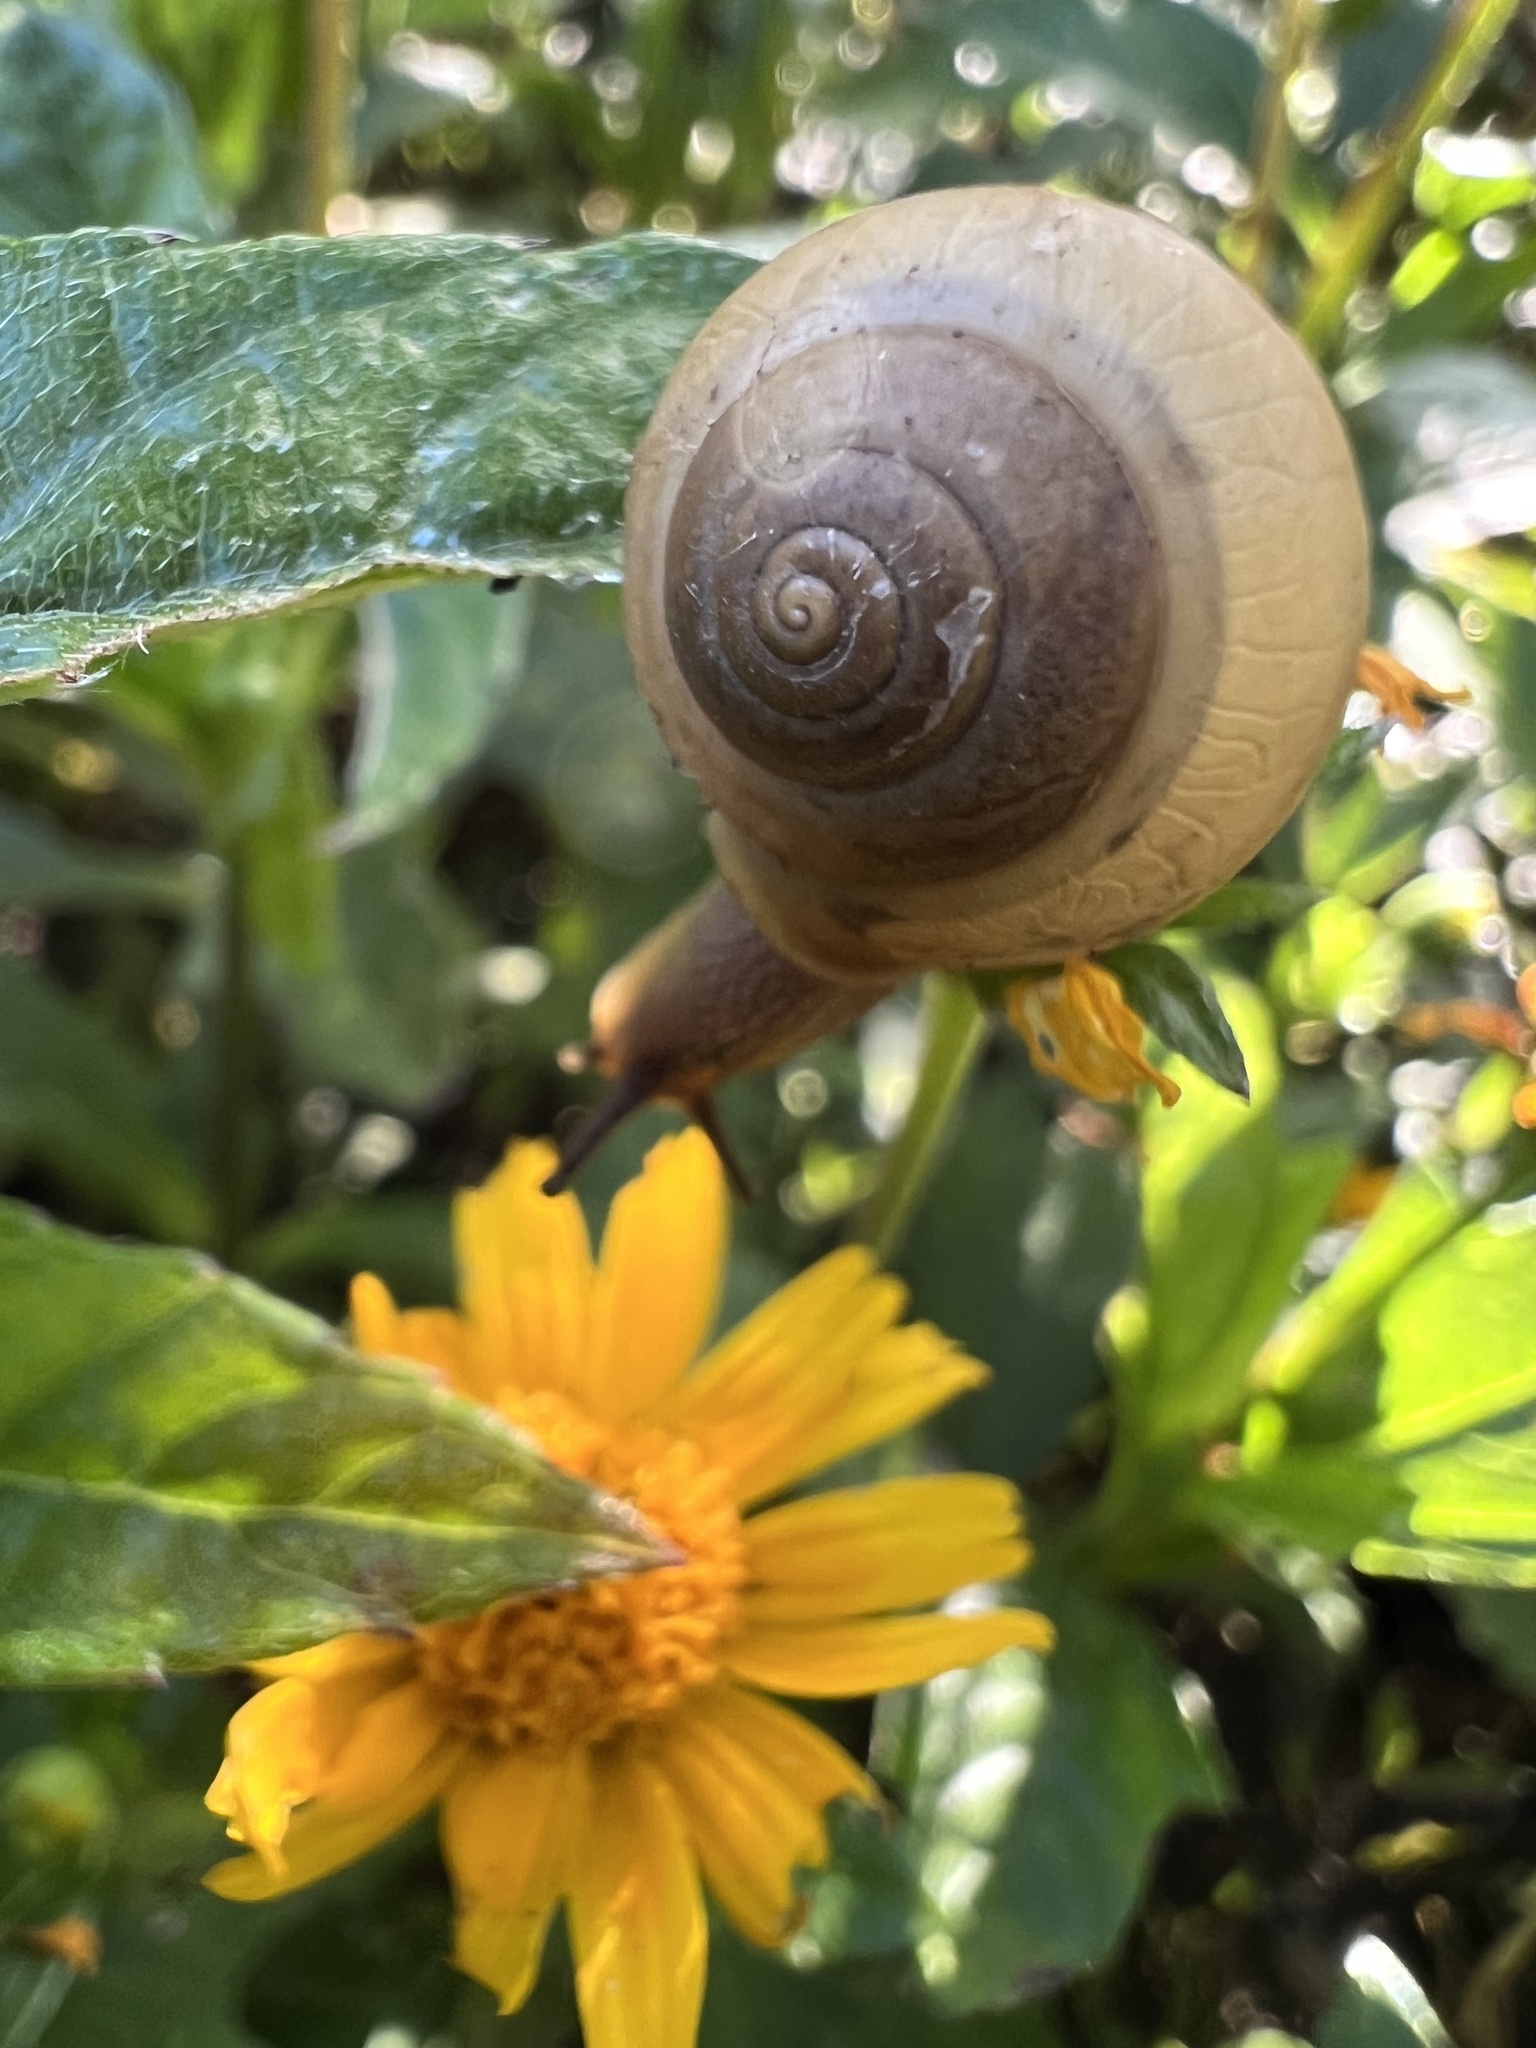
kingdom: Animalia
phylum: Mollusca
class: Gastropoda
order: Stylommatophora
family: Camaenidae
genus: Bradybaena
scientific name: Bradybaena similaris
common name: Asian trampsnail
